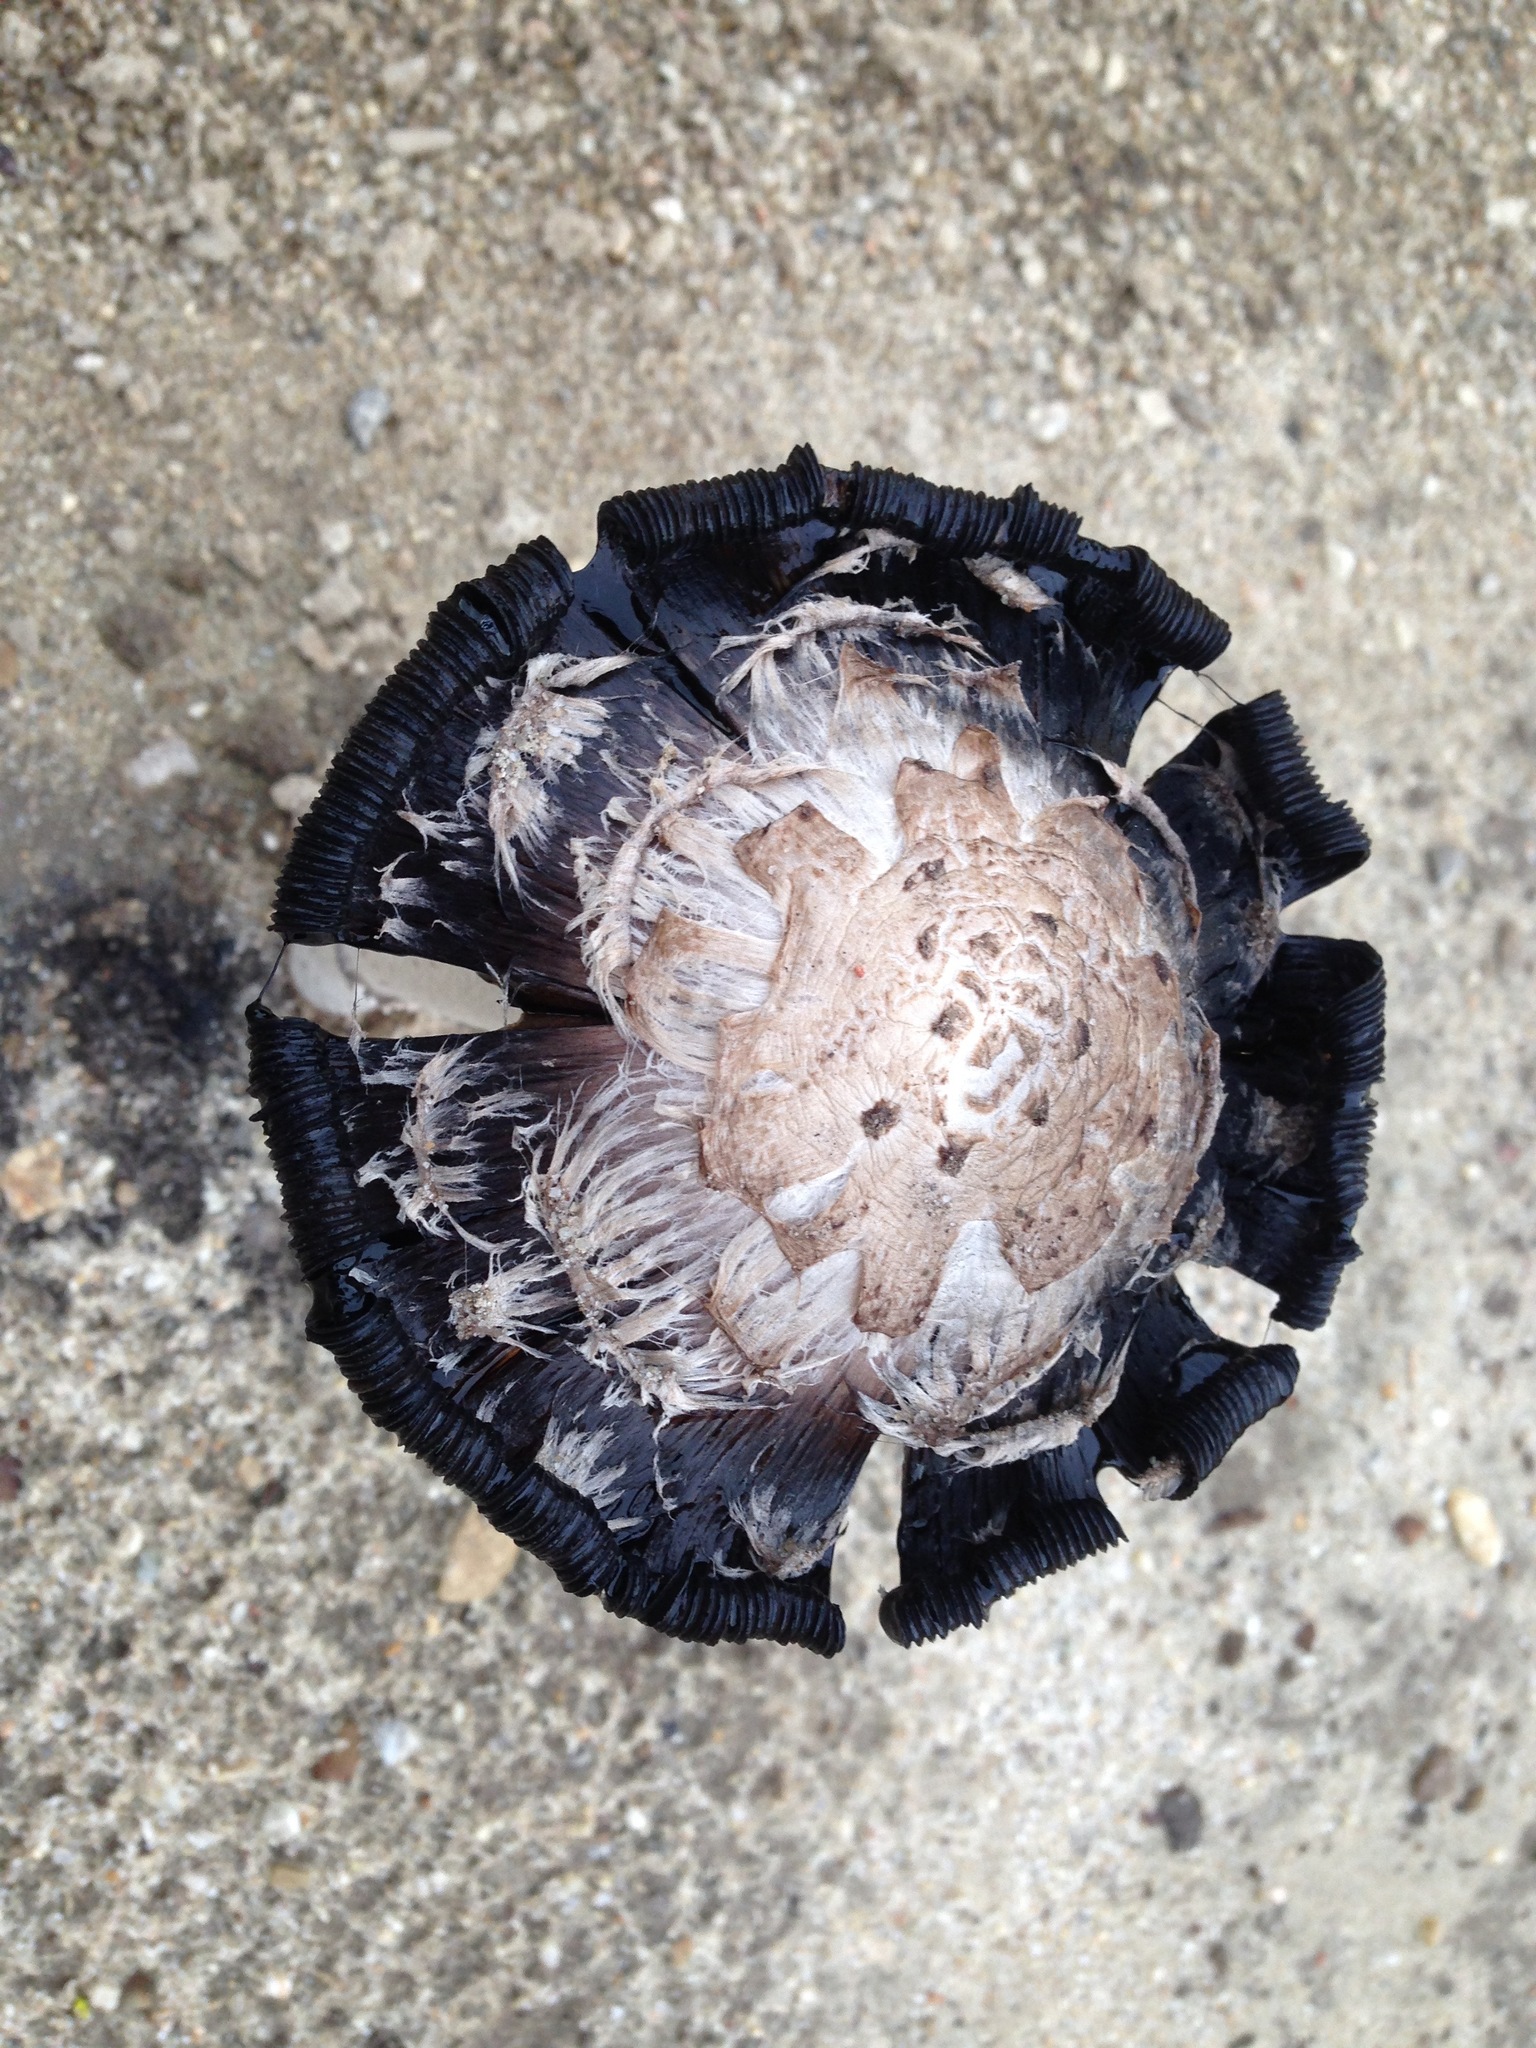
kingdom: Fungi
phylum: Basidiomycota
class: Agaricomycetes
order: Agaricales
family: Agaricaceae
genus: Coprinus
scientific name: Coprinus comatus
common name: Lawyer's wig
